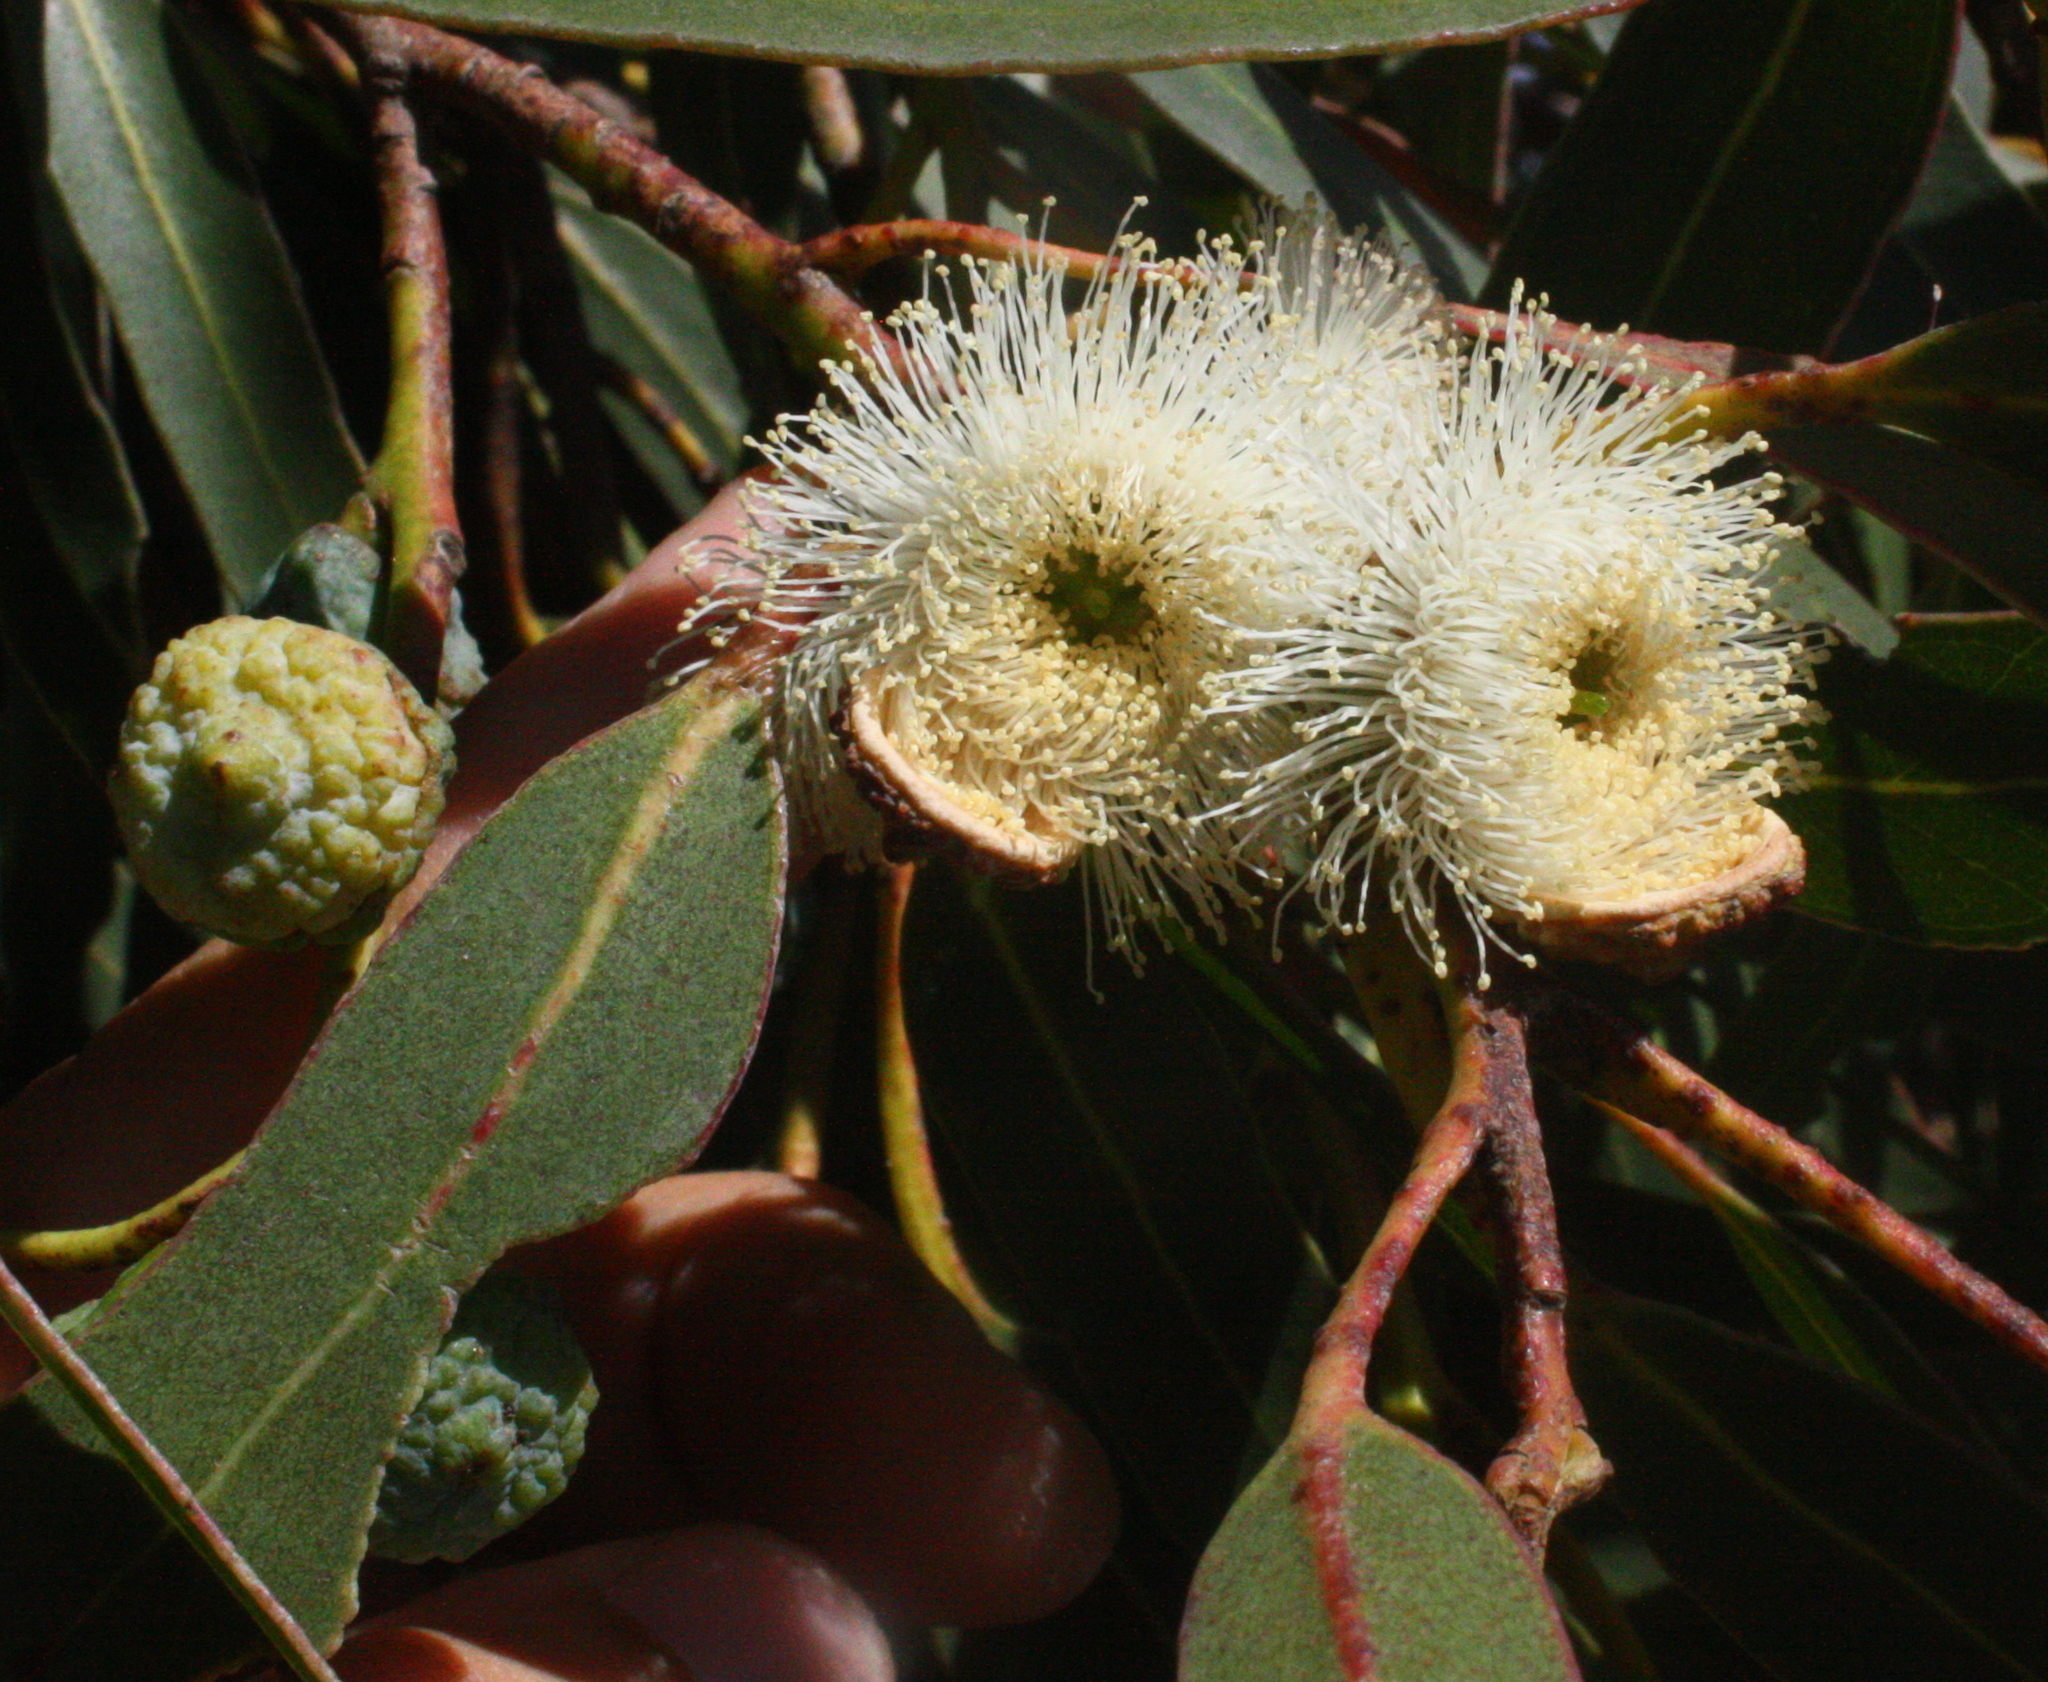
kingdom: Plantae
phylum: Tracheophyta
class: Magnoliopsida
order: Myrtales
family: Myrtaceae
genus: Eucalyptus
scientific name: Eucalyptus globulus
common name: Southern blue-gum
